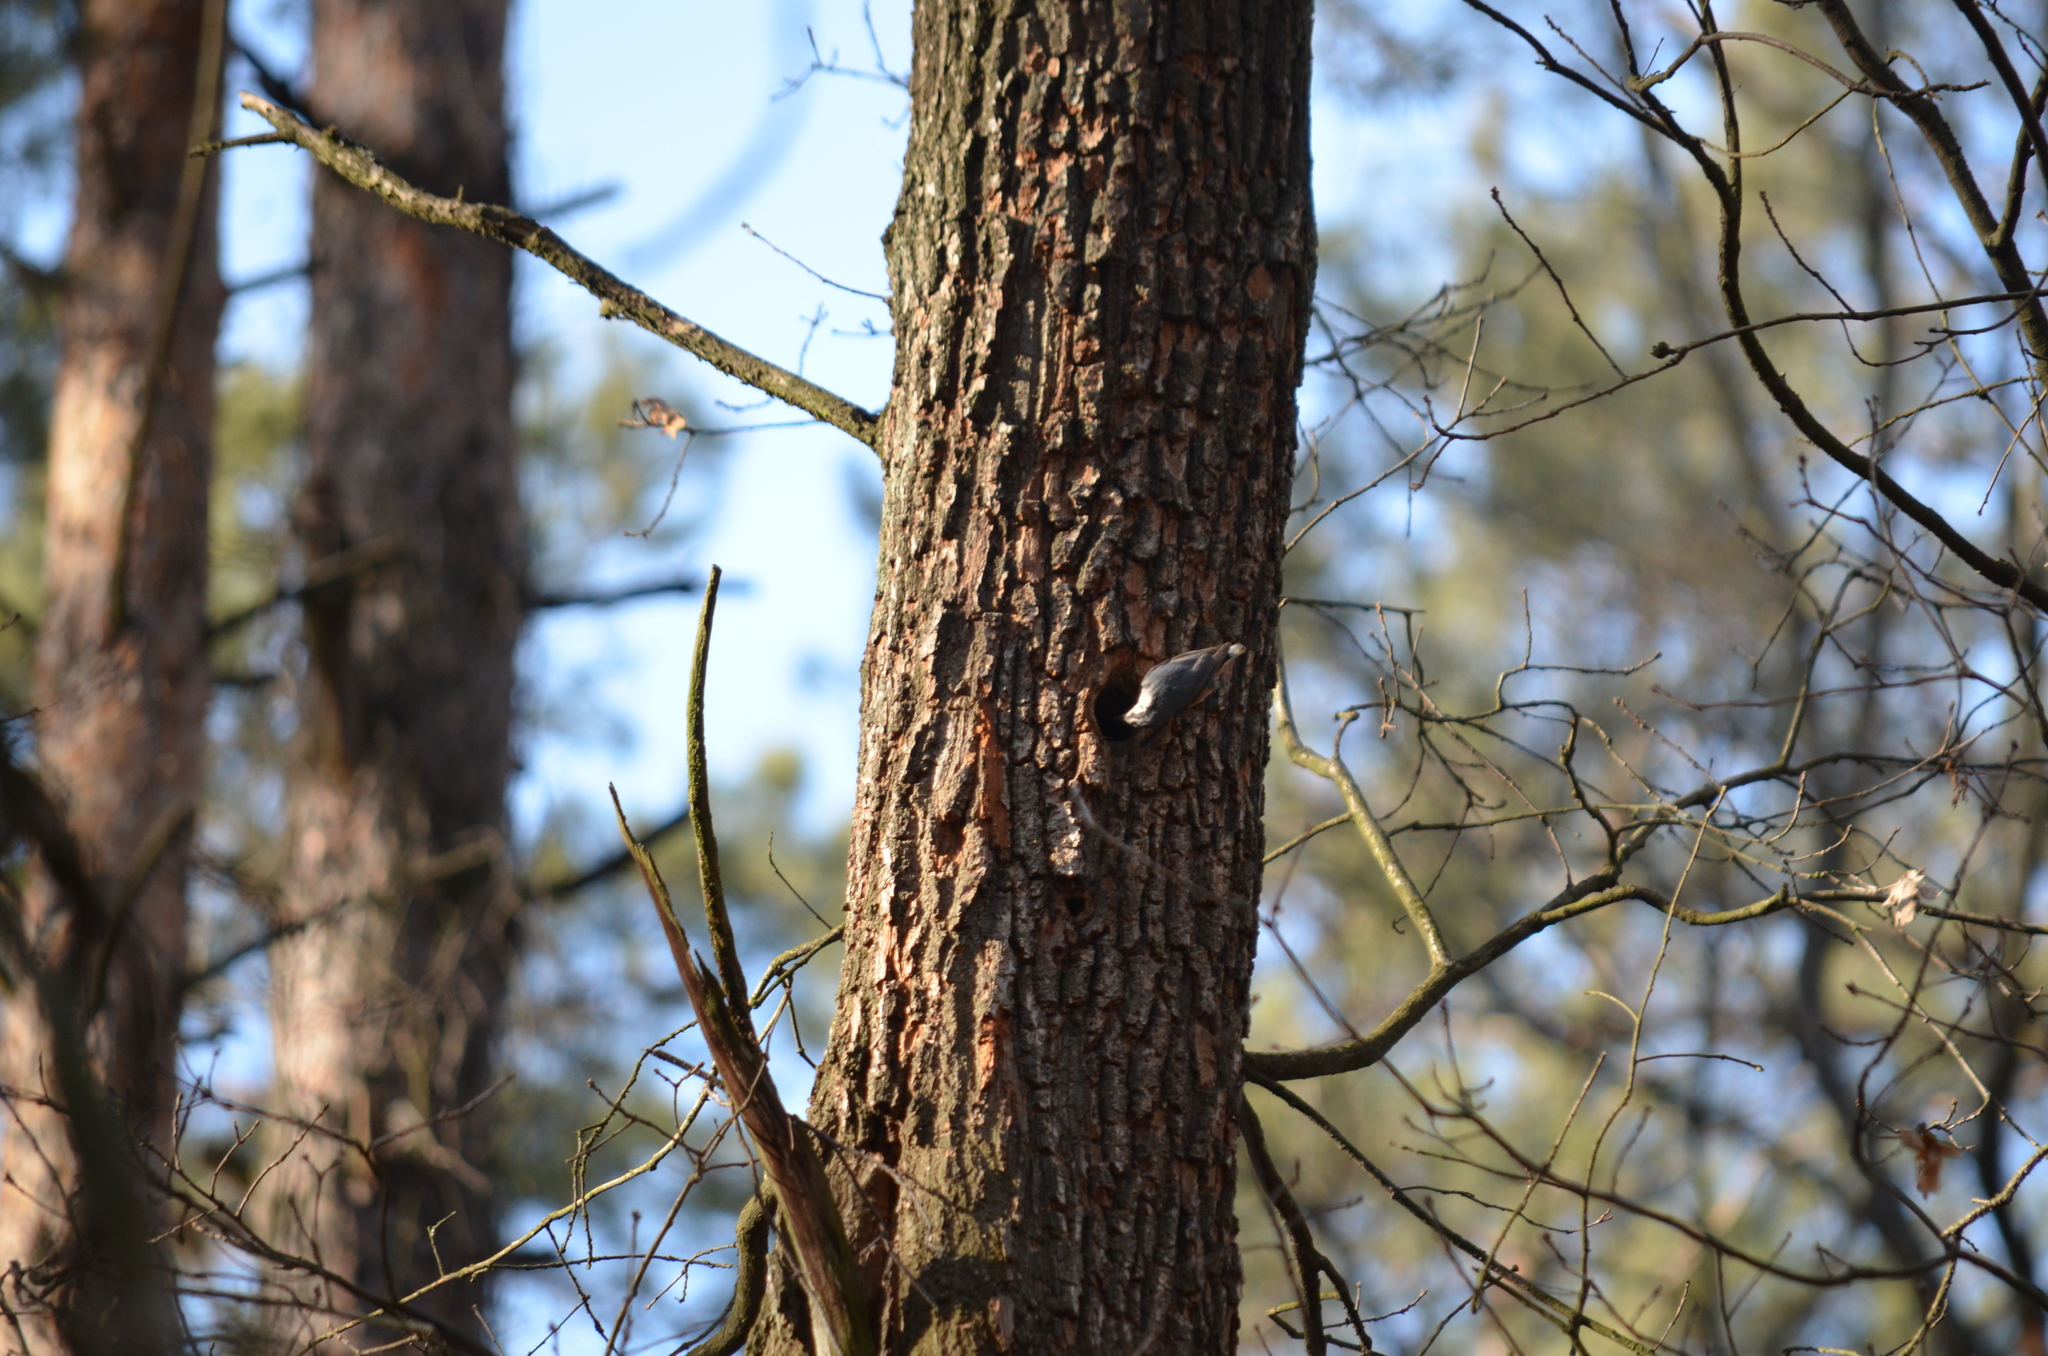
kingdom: Animalia
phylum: Chordata
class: Aves
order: Passeriformes
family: Sittidae
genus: Sitta
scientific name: Sitta europaea
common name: Eurasian nuthatch
